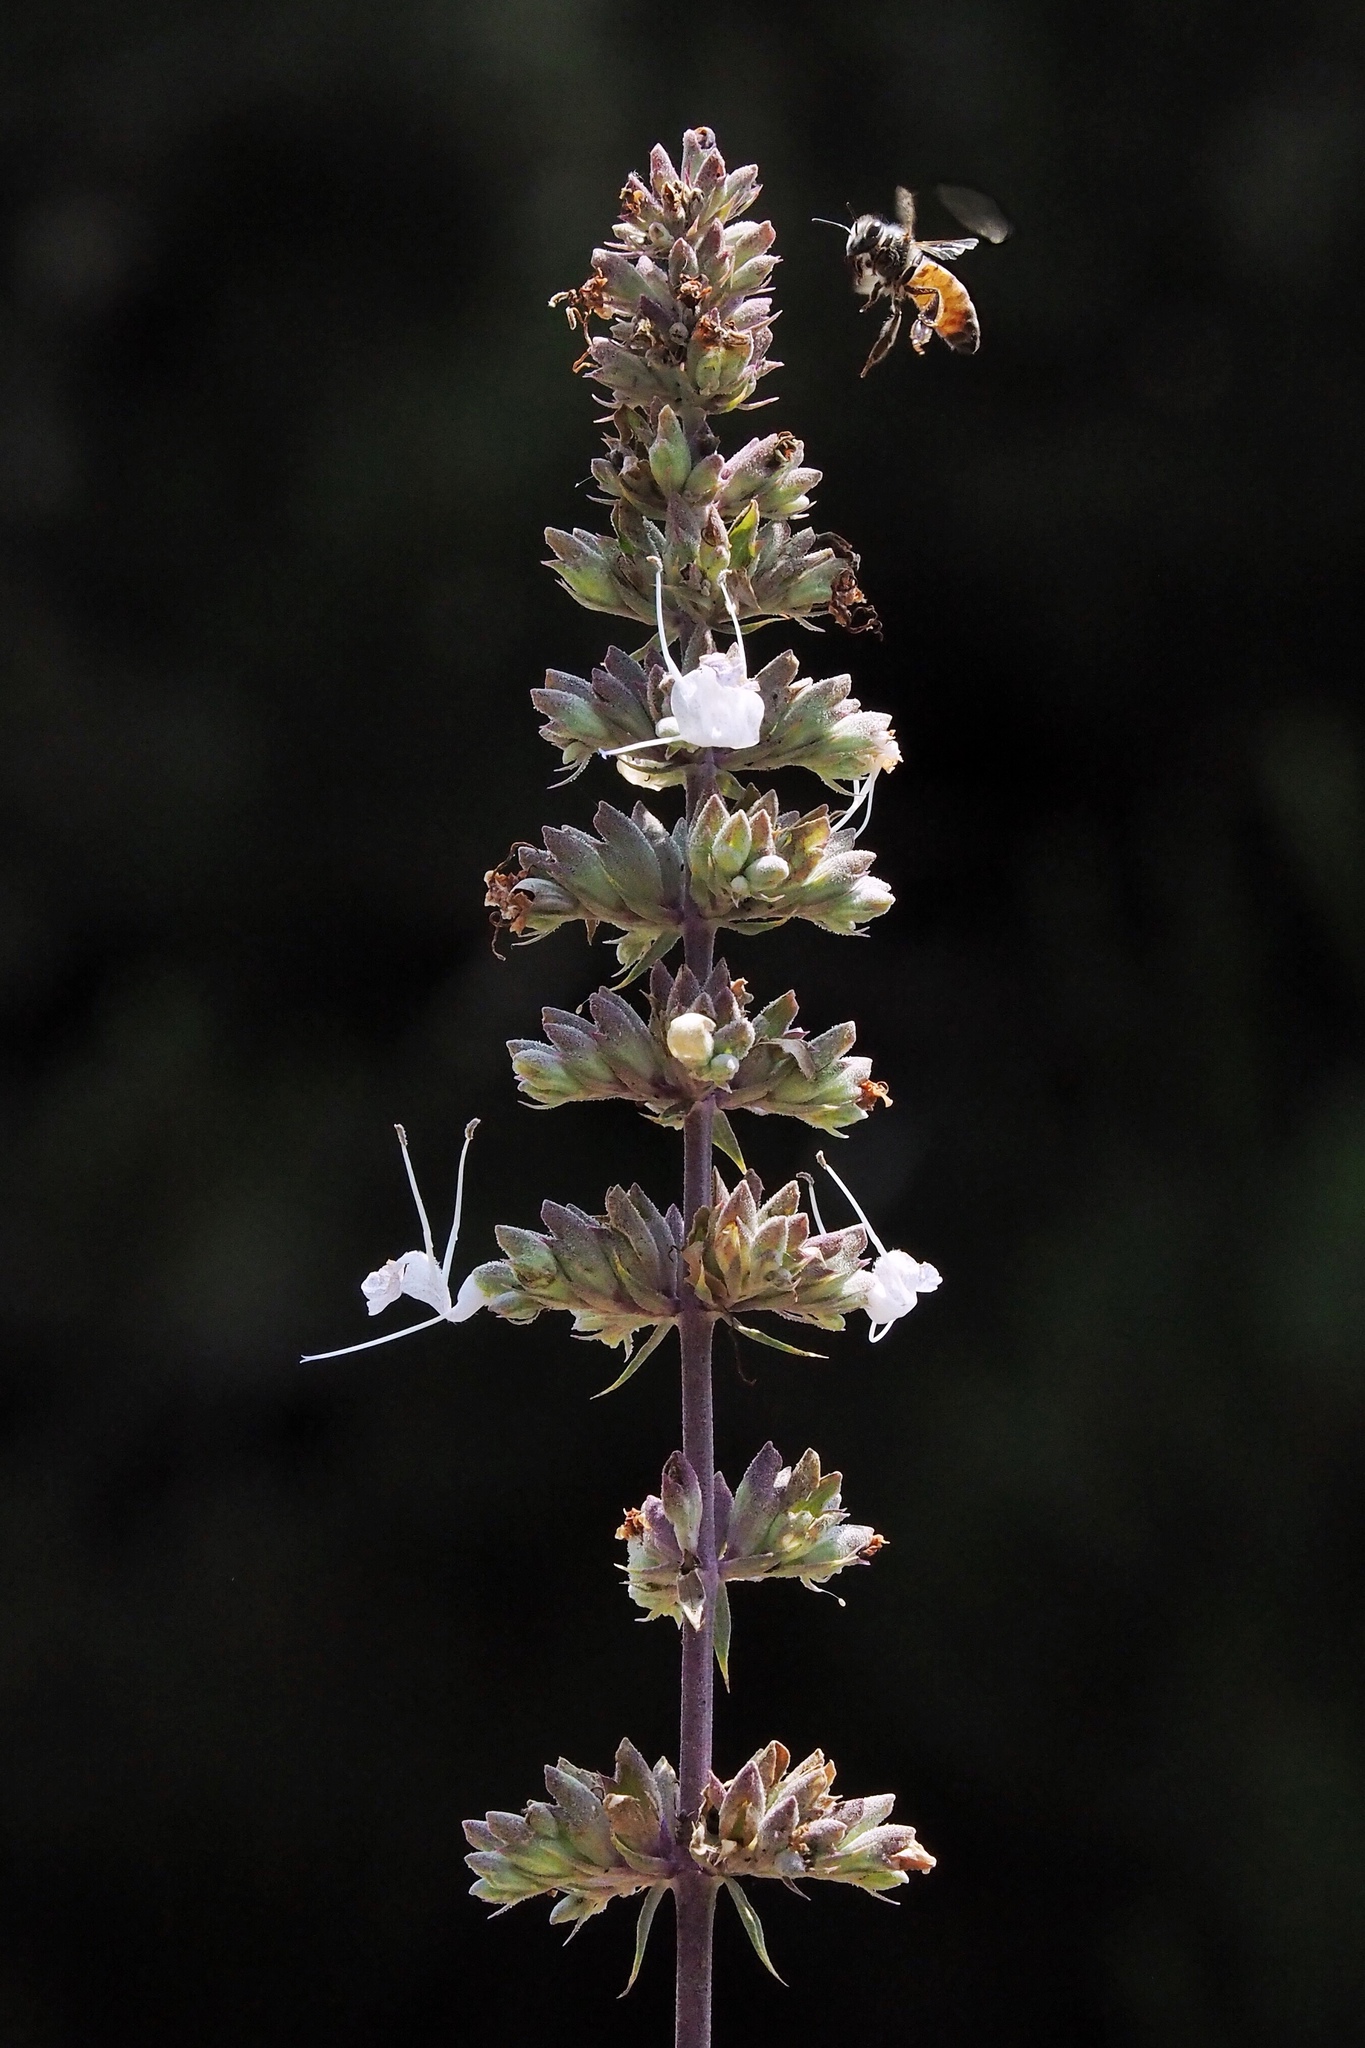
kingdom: Animalia
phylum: Arthropoda
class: Insecta
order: Hymenoptera
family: Apidae
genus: Apis
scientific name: Apis mellifera
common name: Honey bee
